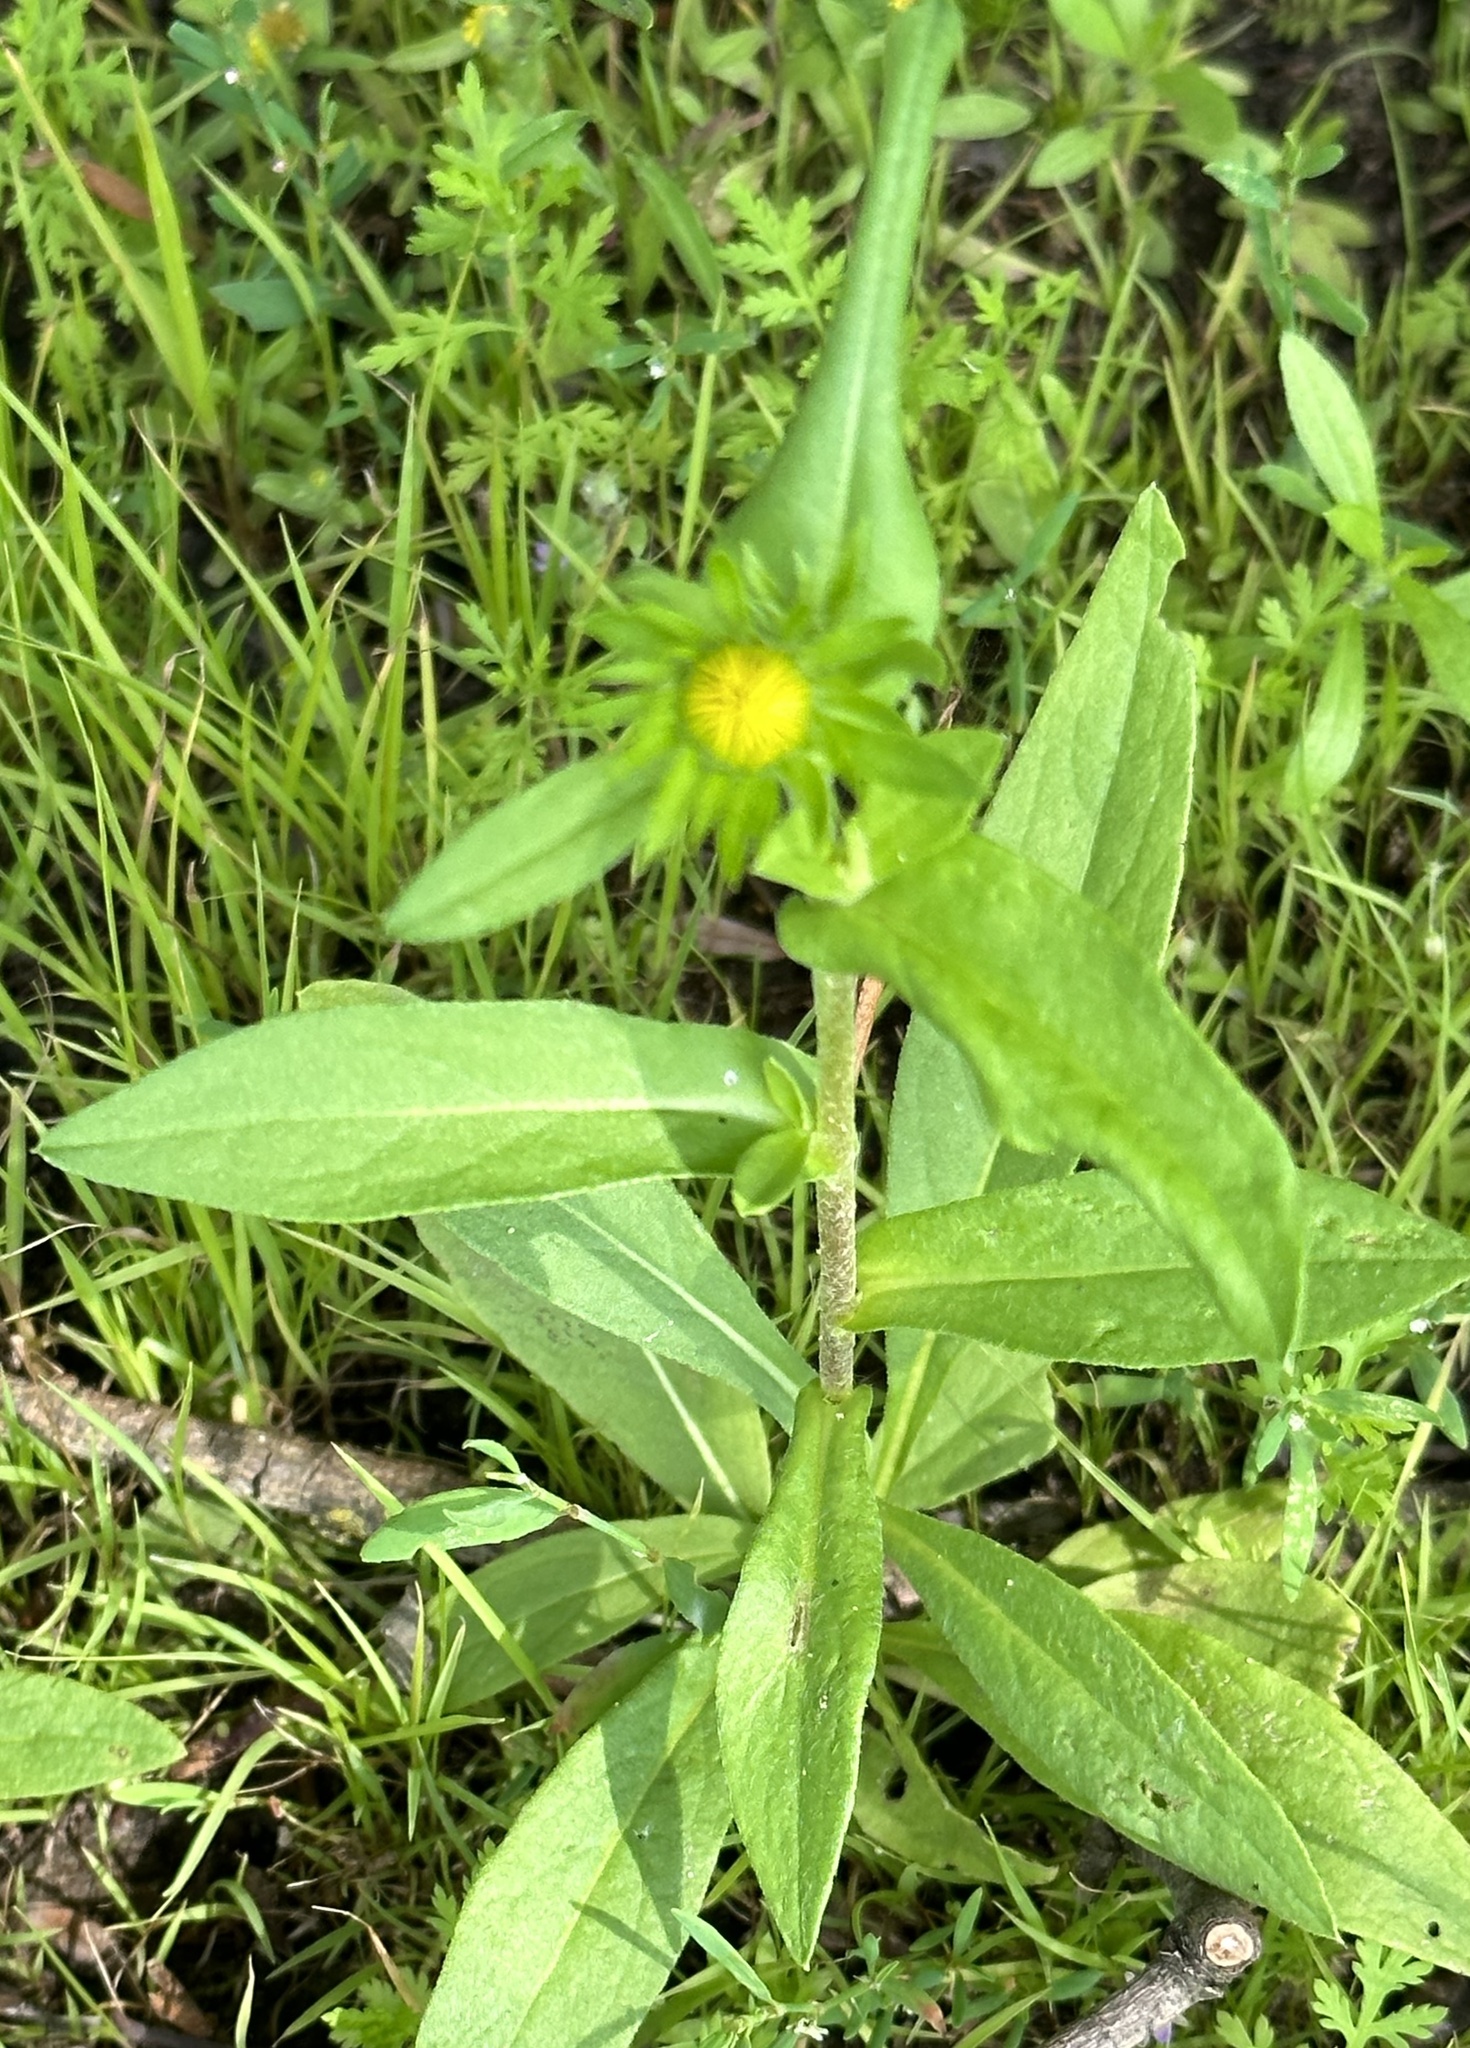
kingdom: Plantae
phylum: Tracheophyta
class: Magnoliopsida
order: Asterales
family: Asteraceae
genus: Pentanema
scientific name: Pentanema britannicum
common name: British elecampane
